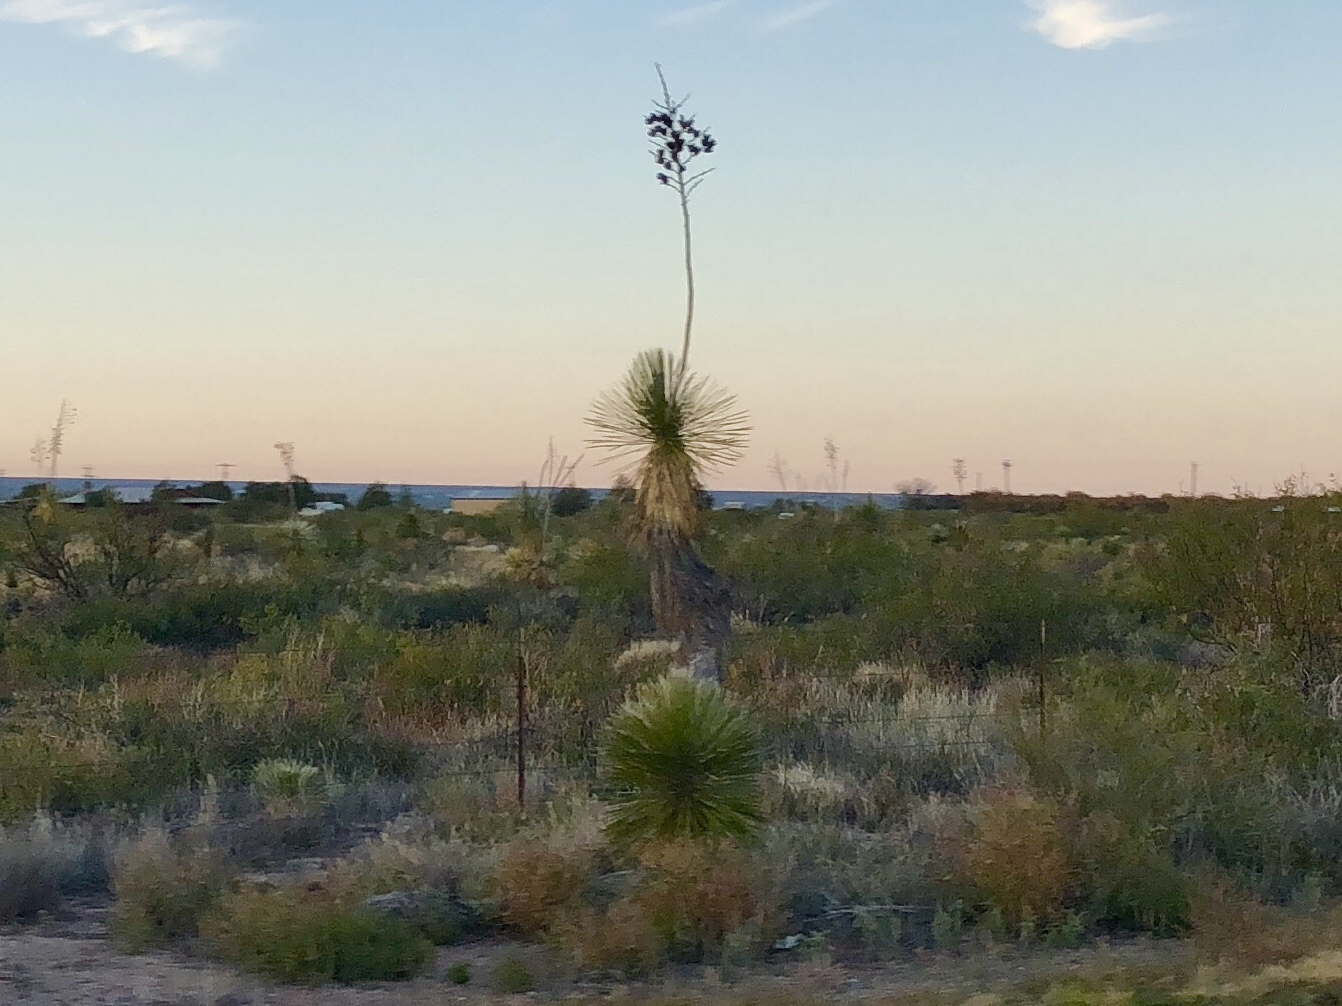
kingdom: Plantae
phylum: Tracheophyta
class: Liliopsida
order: Asparagales
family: Asparagaceae
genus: Yucca
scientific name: Yucca elata
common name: Palmella
